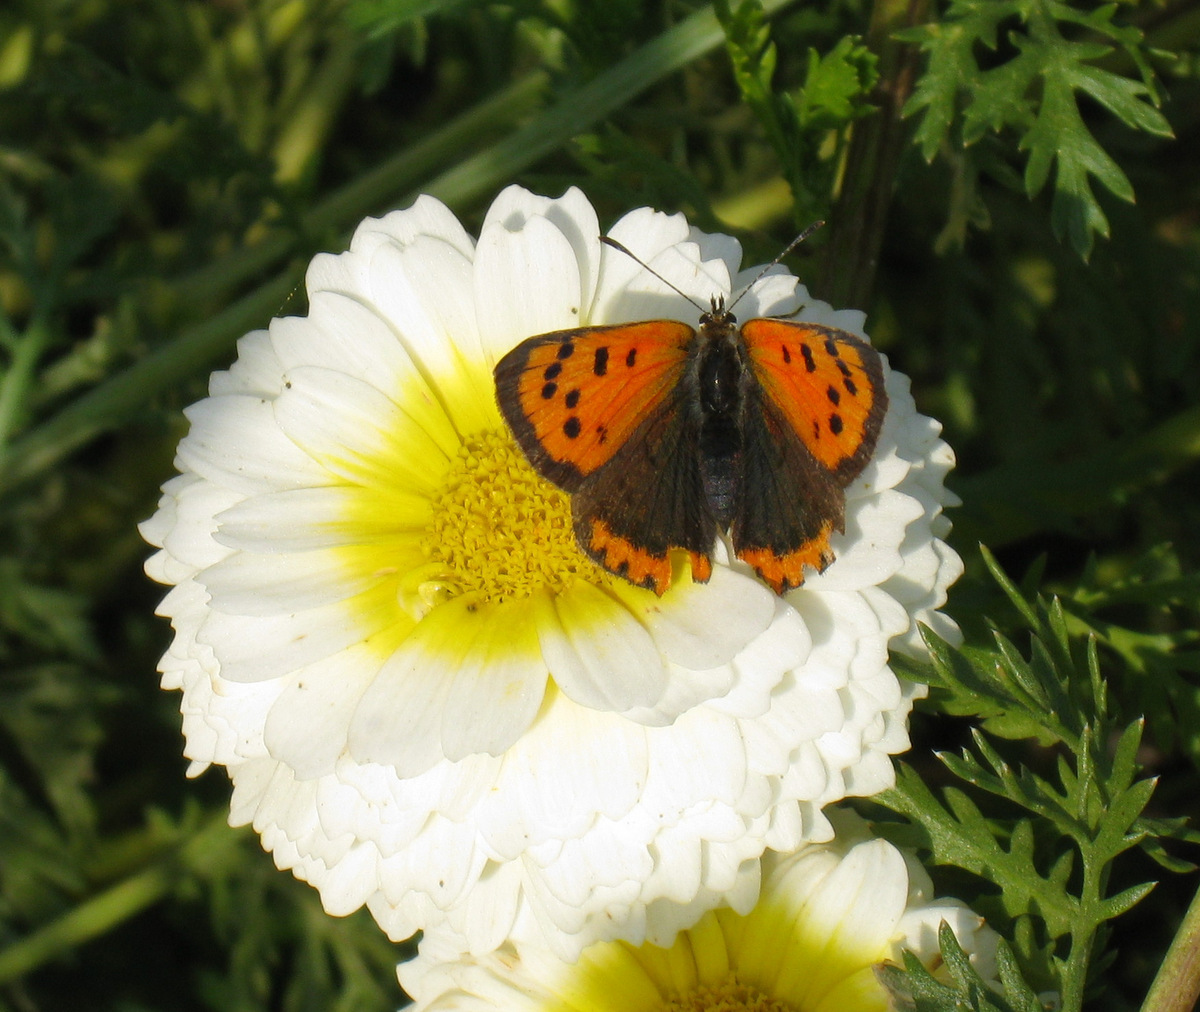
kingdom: Animalia
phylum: Arthropoda
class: Insecta
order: Lepidoptera
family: Lycaenidae
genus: Lycaena
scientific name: Lycaena phlaeas
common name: Small copper
